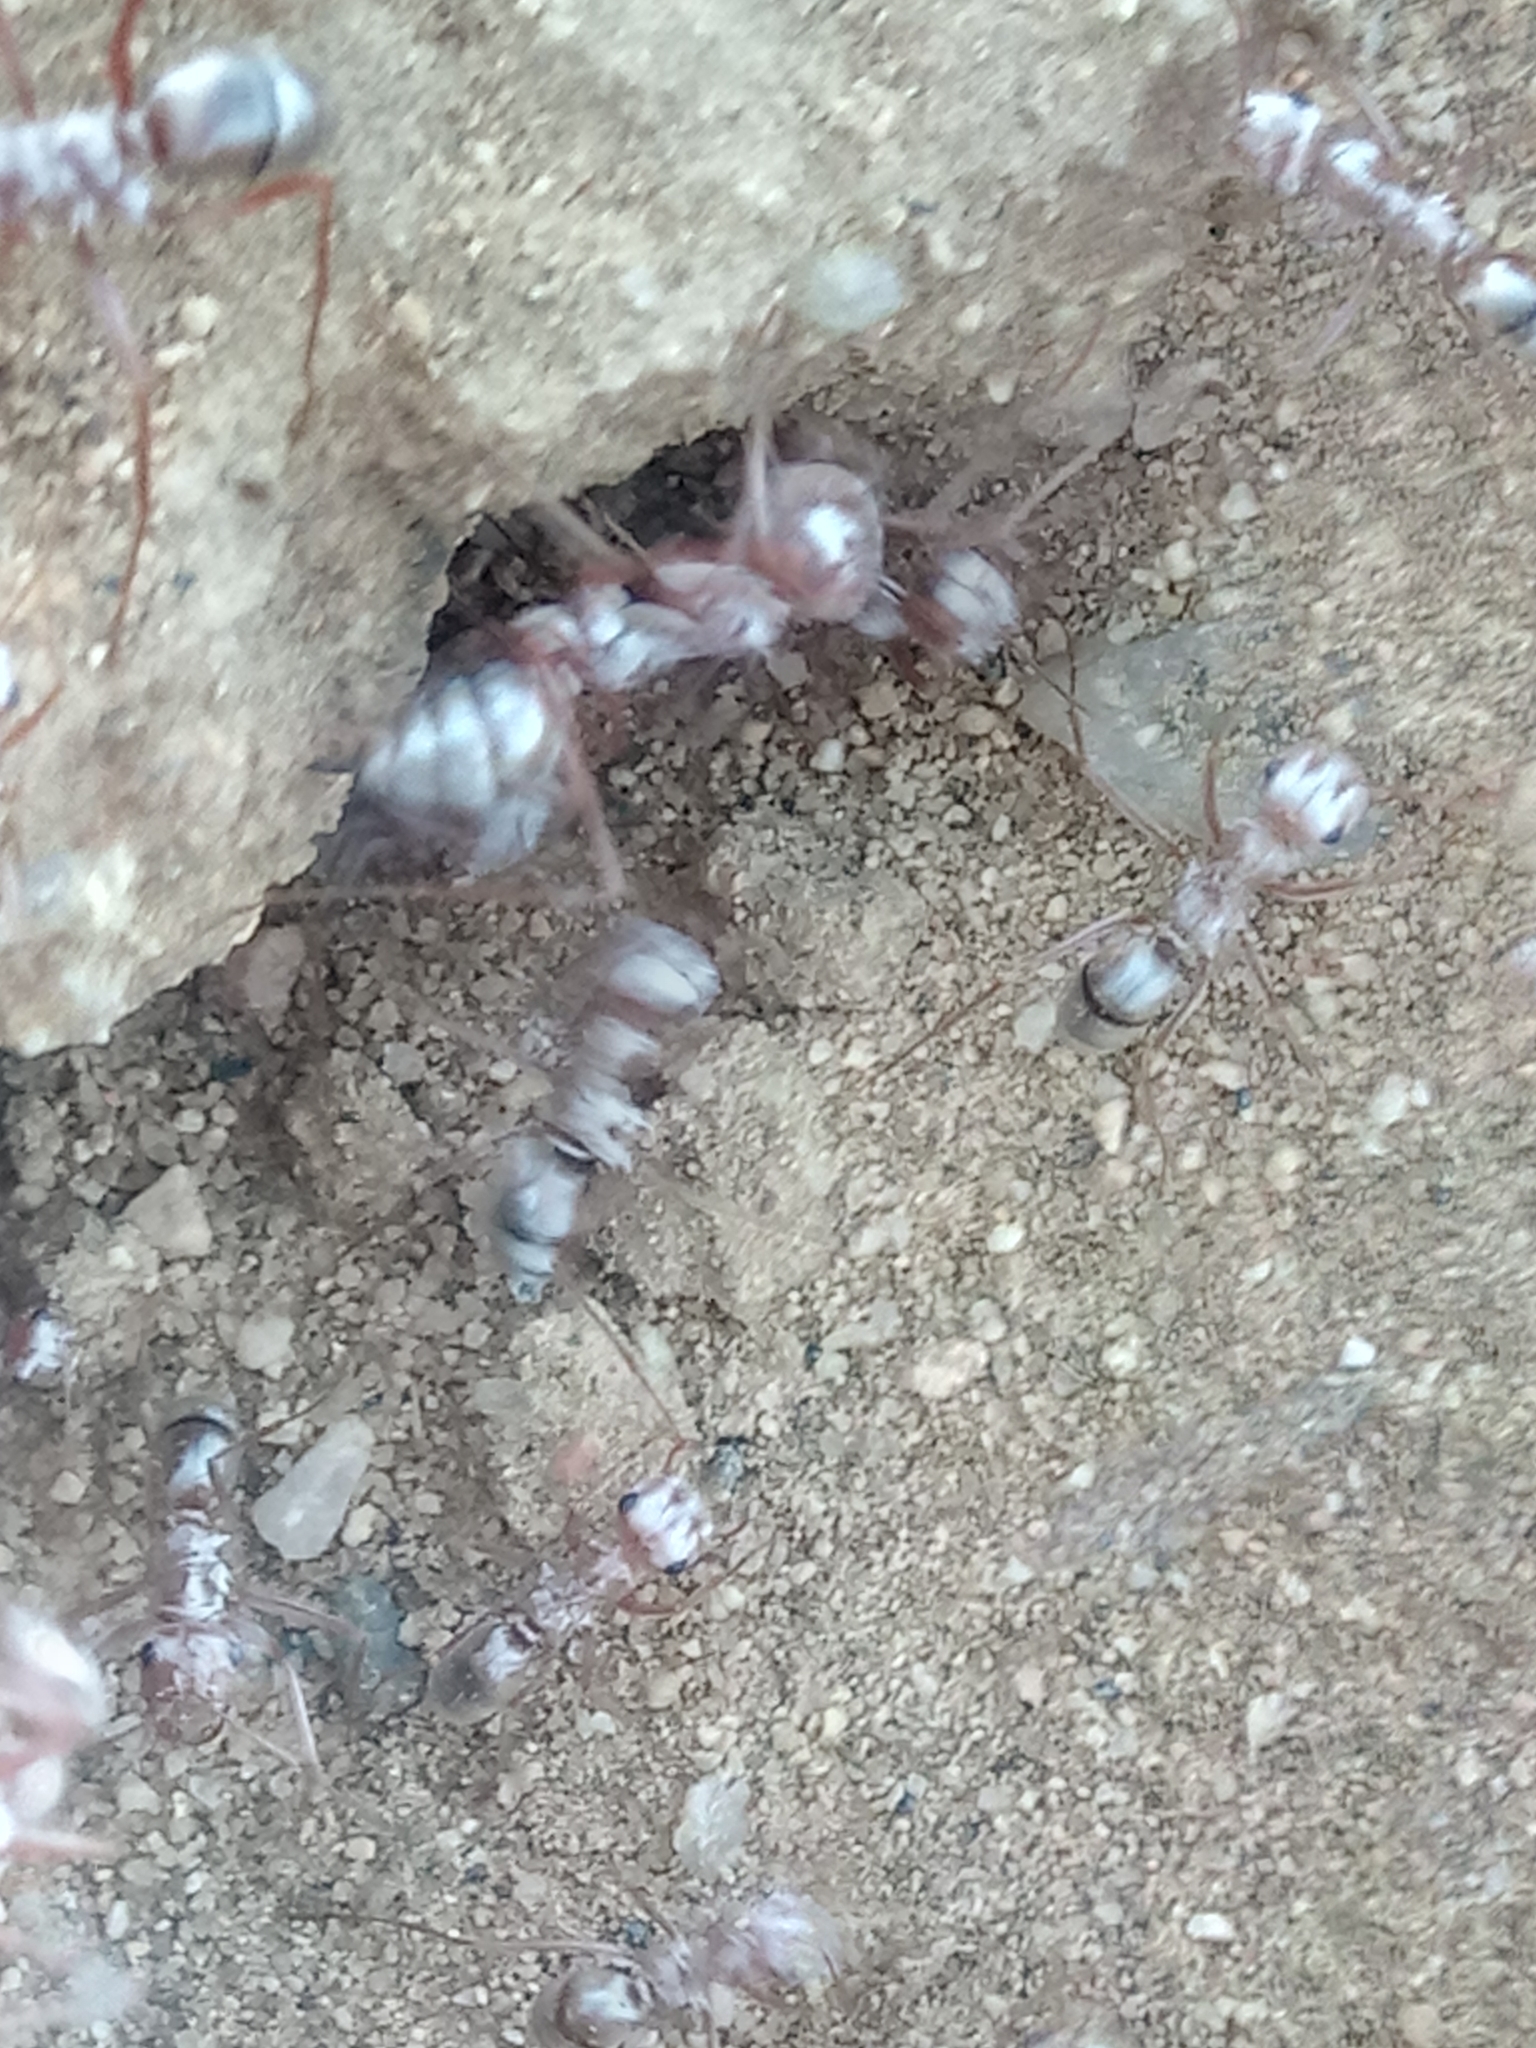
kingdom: Animalia
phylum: Arthropoda
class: Insecta
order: Hymenoptera
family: Formicidae
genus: Cataglyphis
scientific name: Cataglyphis bombycinus
